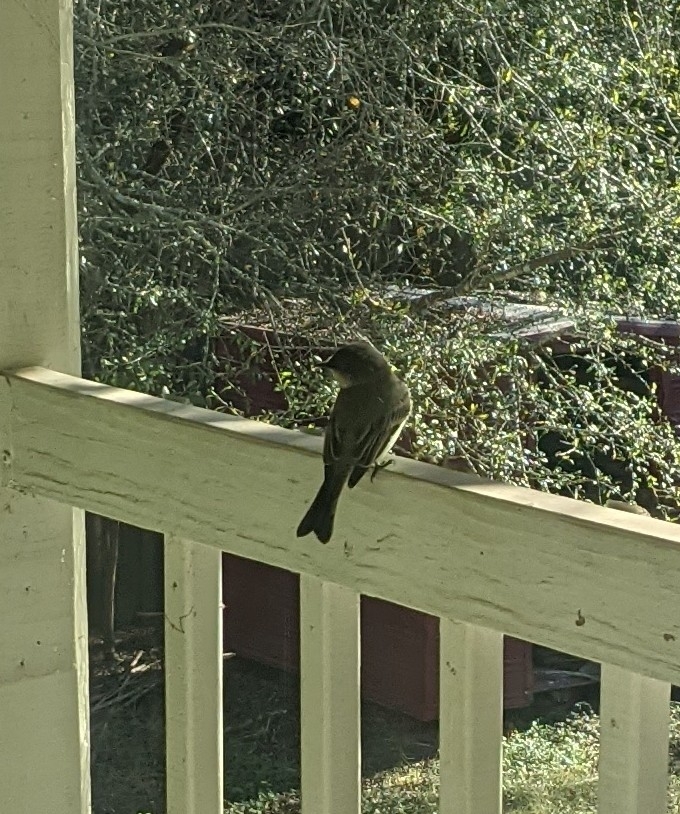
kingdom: Animalia
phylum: Chordata
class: Aves
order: Passeriformes
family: Tyrannidae
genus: Sayornis
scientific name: Sayornis phoebe
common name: Eastern phoebe
